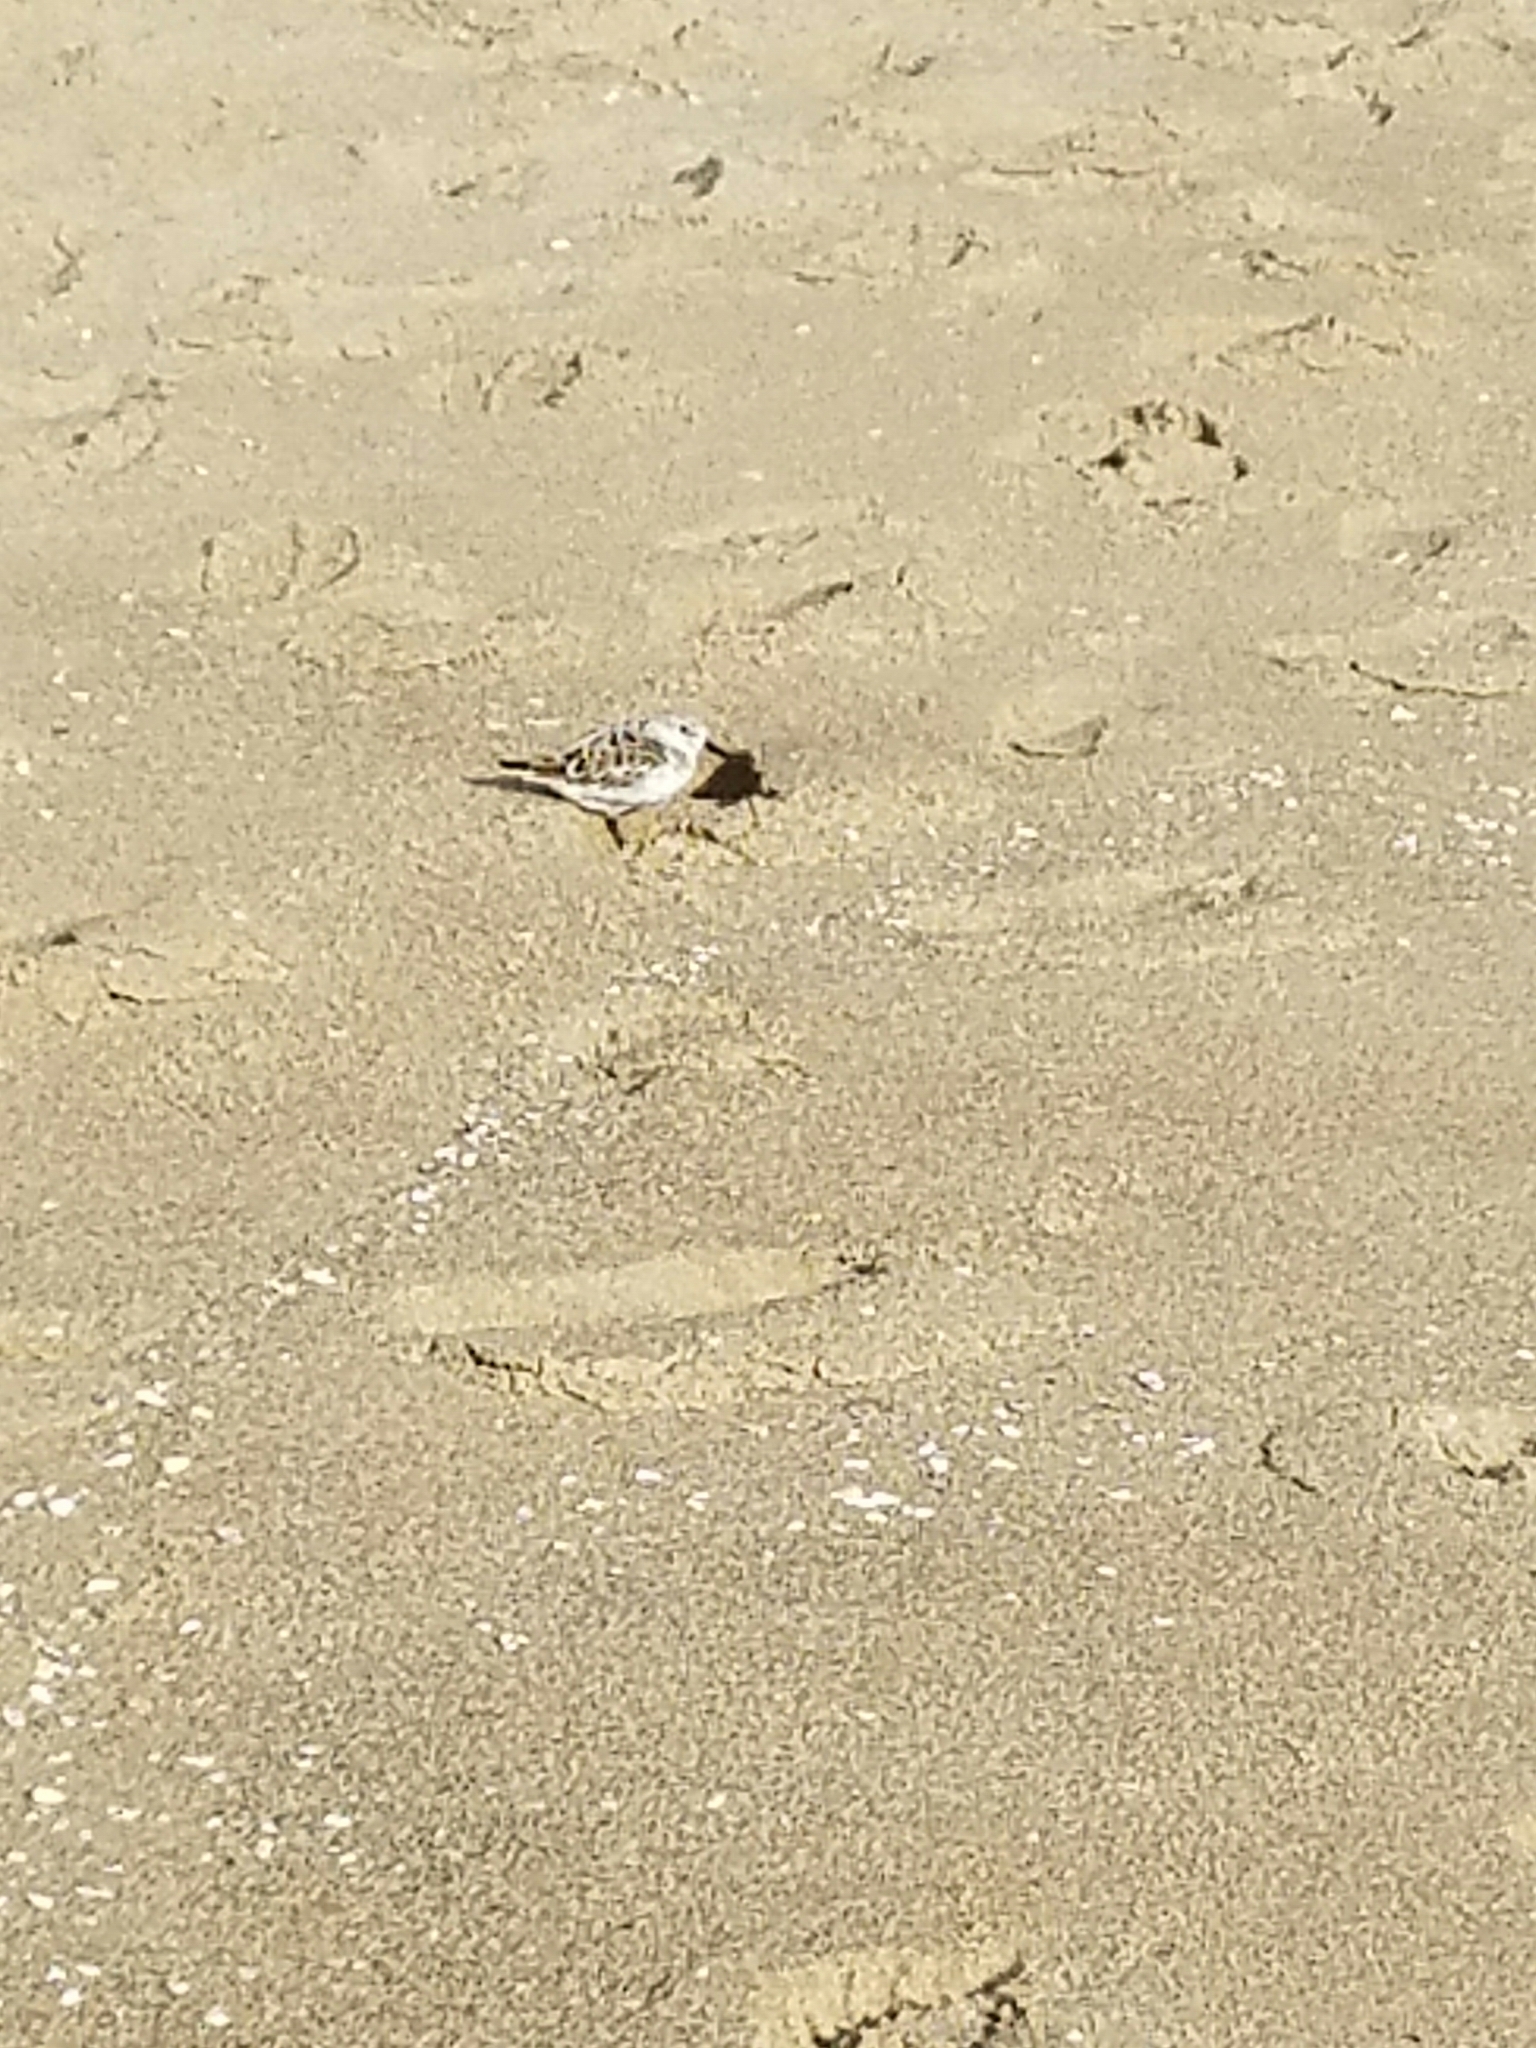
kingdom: Animalia
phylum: Chordata
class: Aves
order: Charadriiformes
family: Scolopacidae
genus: Calidris
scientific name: Calidris alba
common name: Sanderling
